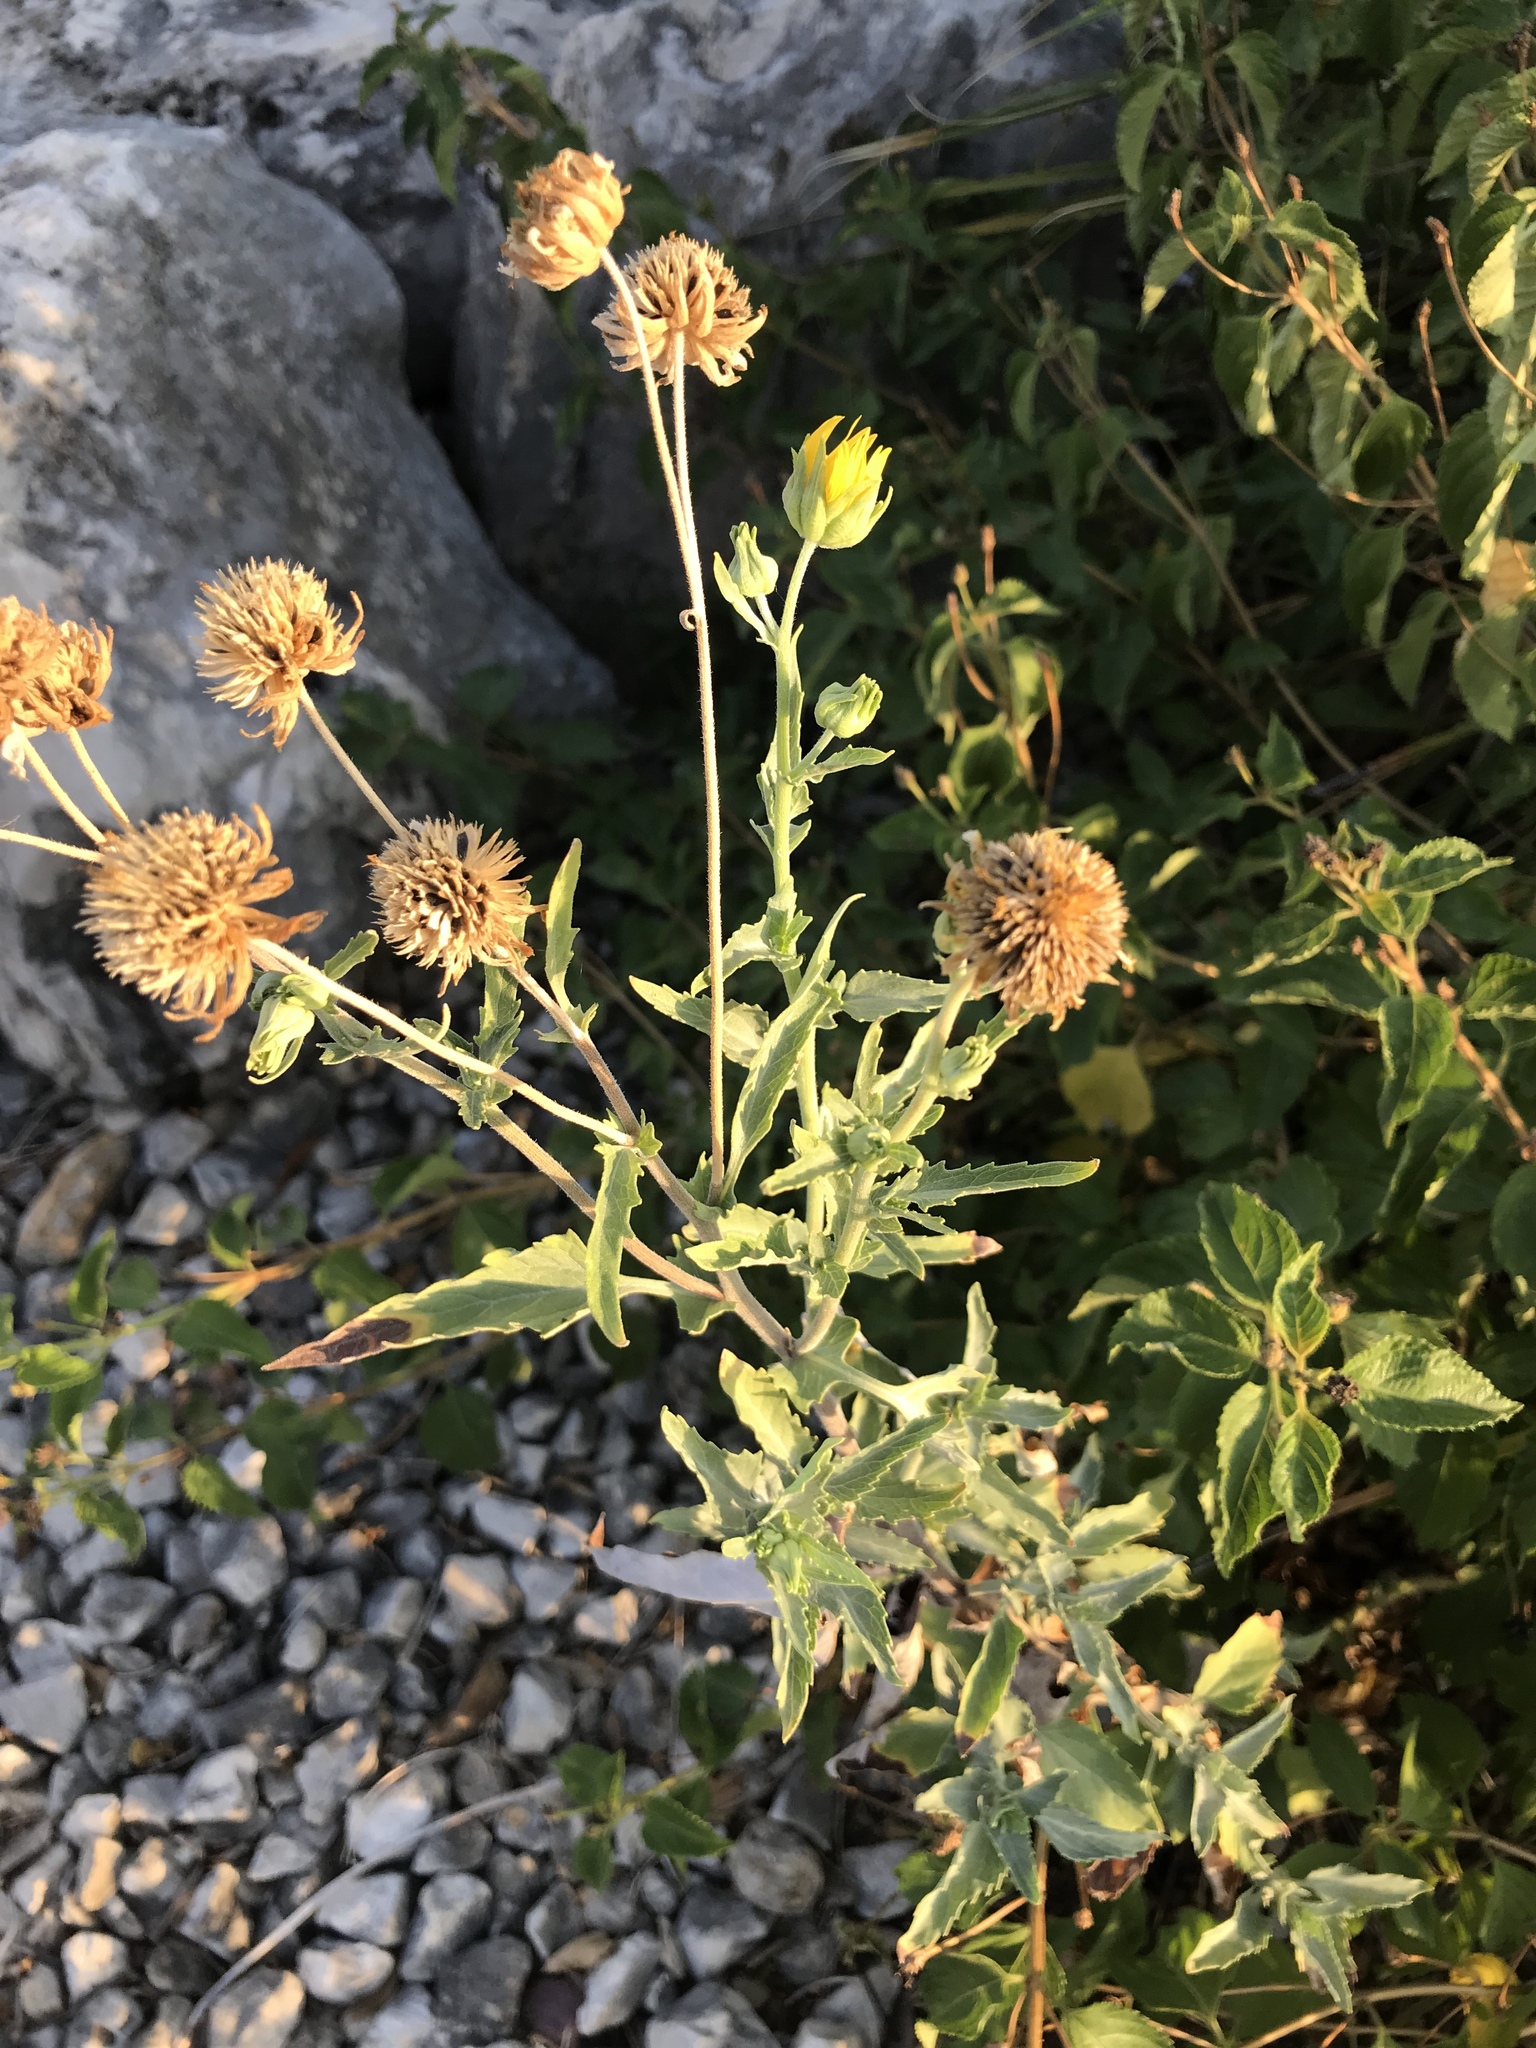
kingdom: Plantae
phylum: Tracheophyta
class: Magnoliopsida
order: Asterales
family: Asteraceae
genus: Verbesina
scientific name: Verbesina encelioides
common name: Golden crownbeard
